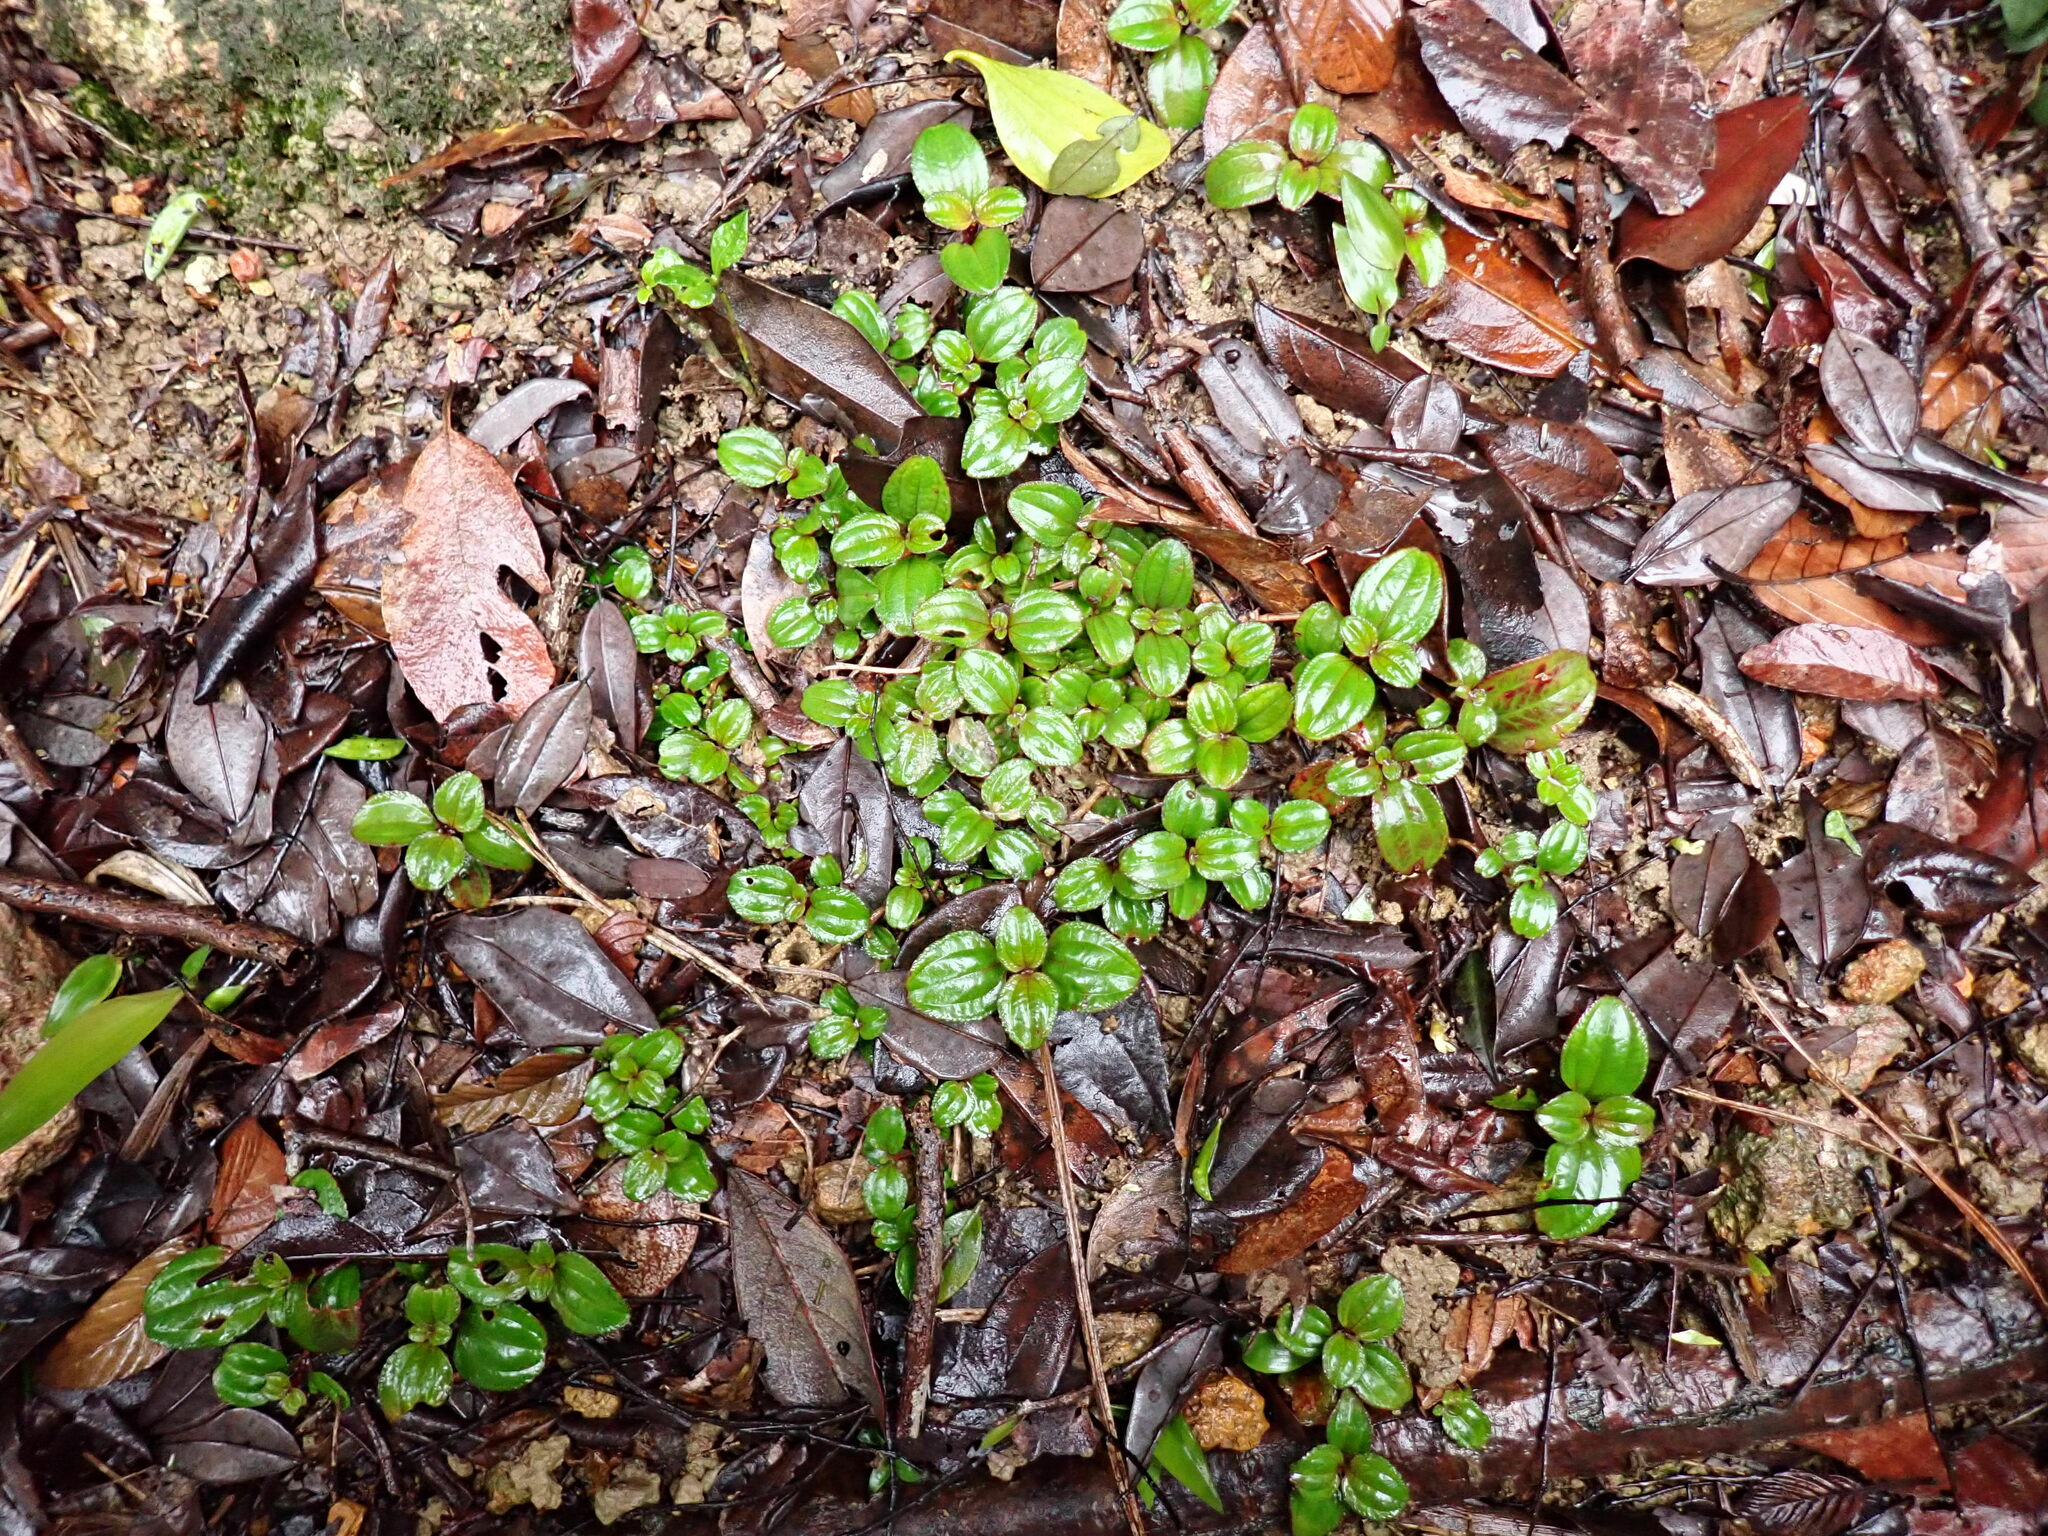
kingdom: Plantae
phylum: Tracheophyta
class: Magnoliopsida
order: Myrtales
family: Melastomataceae
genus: Melastoma
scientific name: Melastoma dodecandrum
